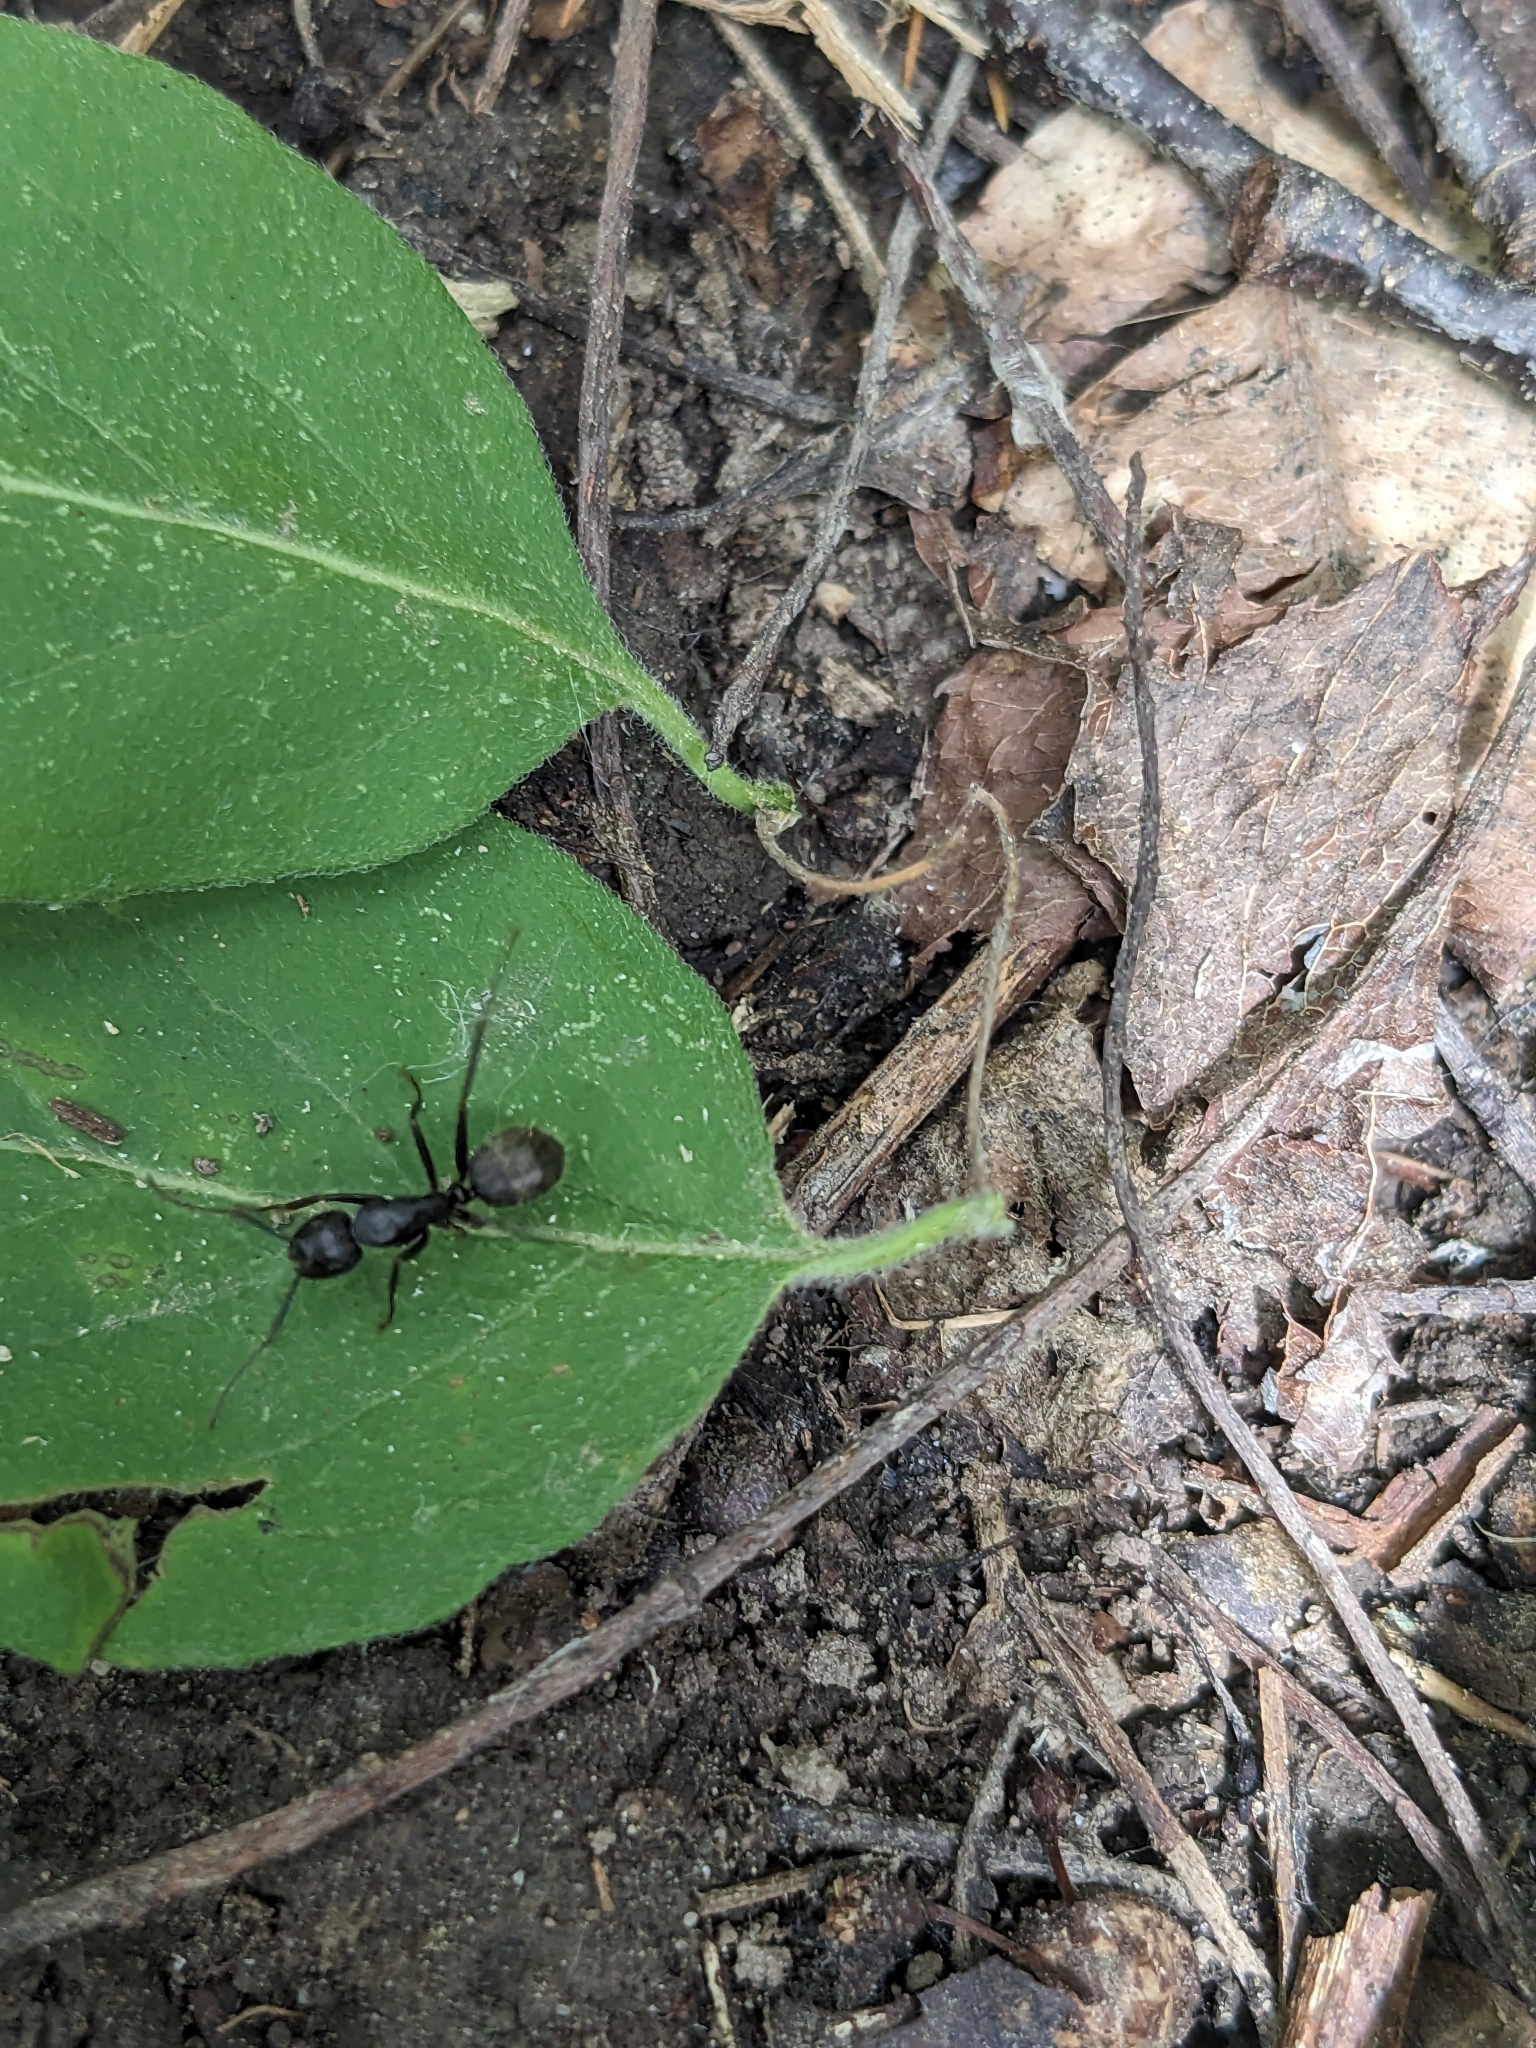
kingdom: Animalia
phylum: Arthropoda
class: Insecta
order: Hymenoptera
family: Formicidae
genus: Camponotus
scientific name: Camponotus pennsylvanicus
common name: Black carpenter ant
